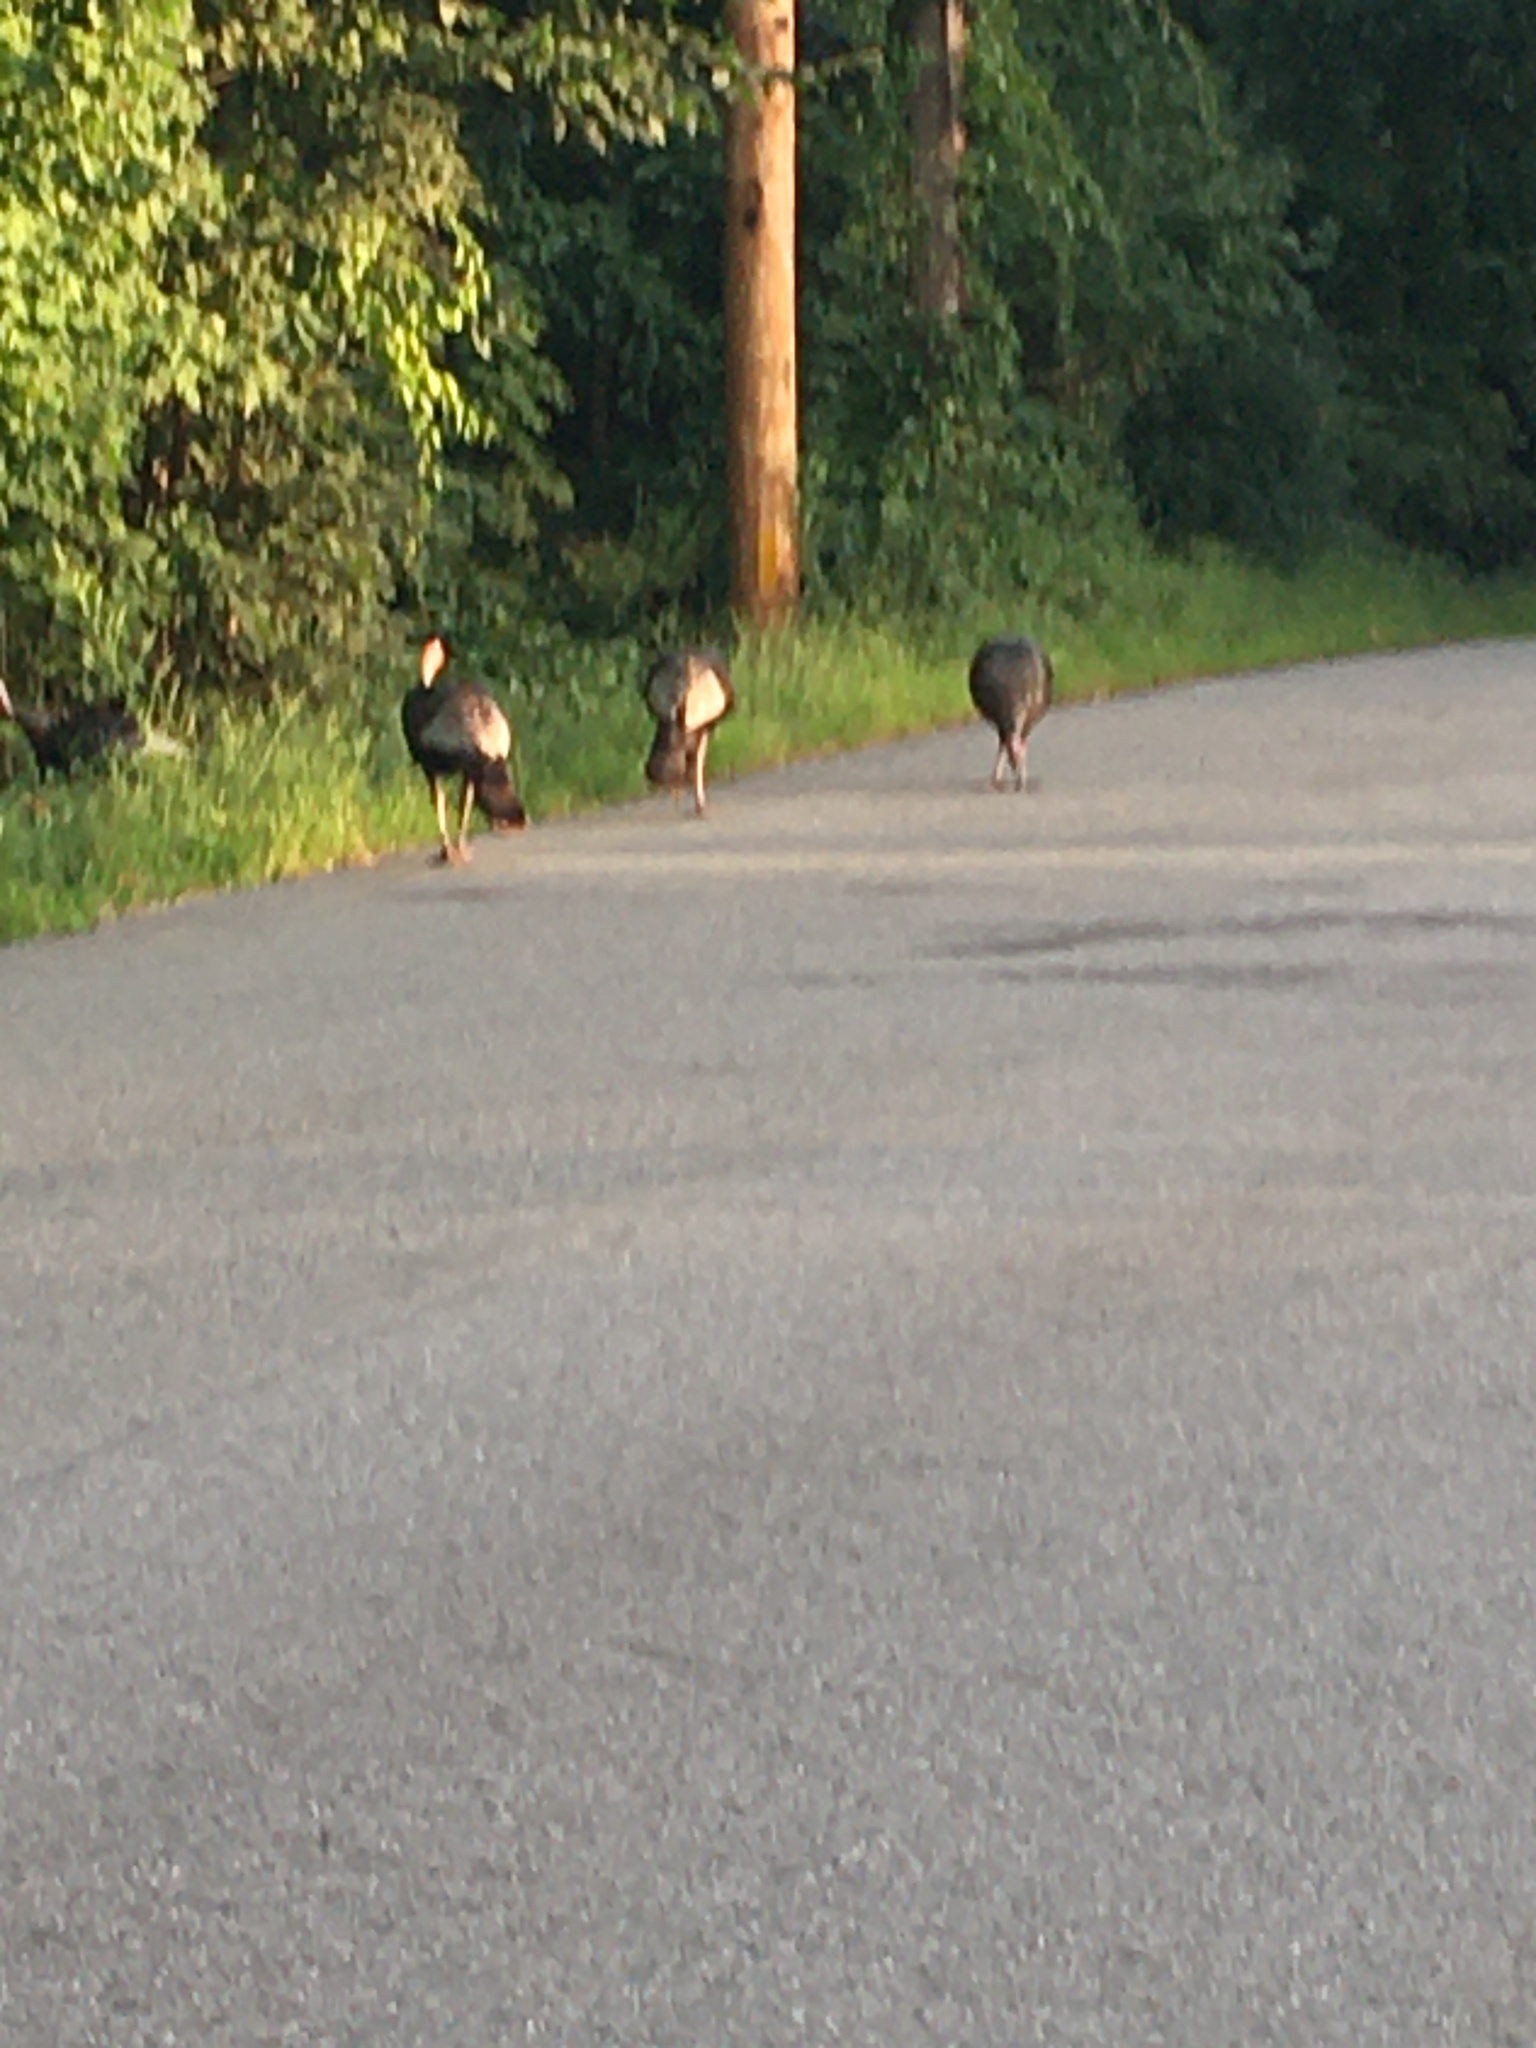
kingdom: Animalia
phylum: Chordata
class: Aves
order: Galliformes
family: Phasianidae
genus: Meleagris
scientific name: Meleagris gallopavo
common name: Wild turkey
